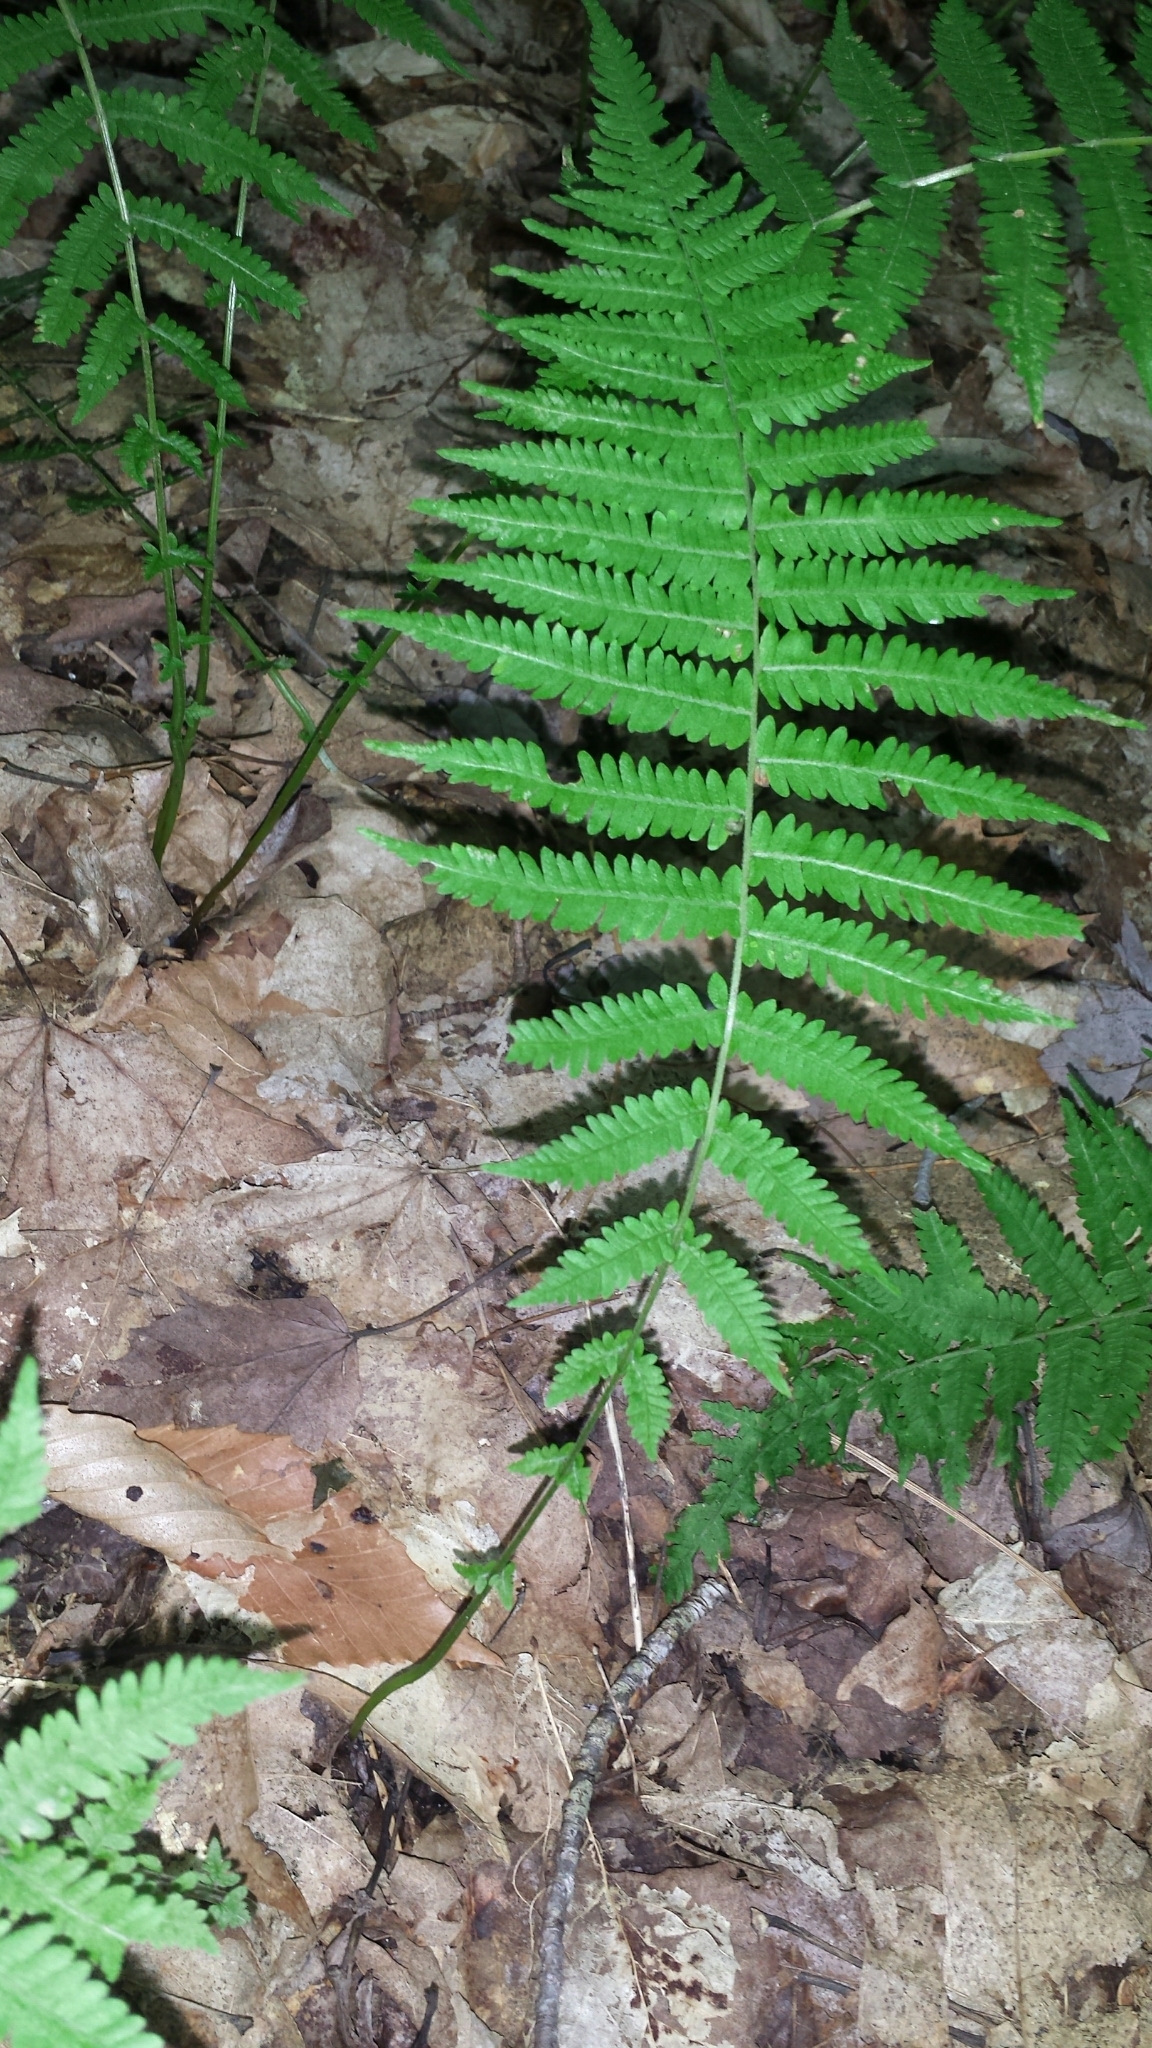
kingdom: Plantae
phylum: Tracheophyta
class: Polypodiopsida
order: Polypodiales
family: Thelypteridaceae
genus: Amauropelta
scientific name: Amauropelta noveboracensis
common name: New york fern
